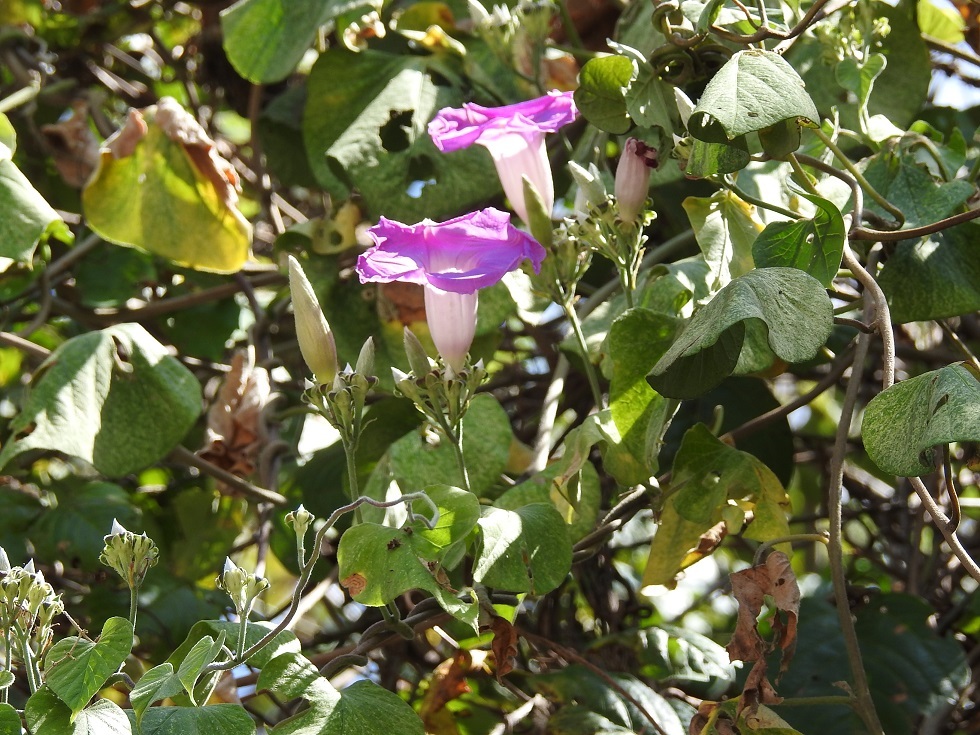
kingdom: Plantae
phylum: Tracheophyta
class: Magnoliopsida
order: Solanales
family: Convolvulaceae
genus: Ipomoea
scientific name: Ipomoea leucotricha
